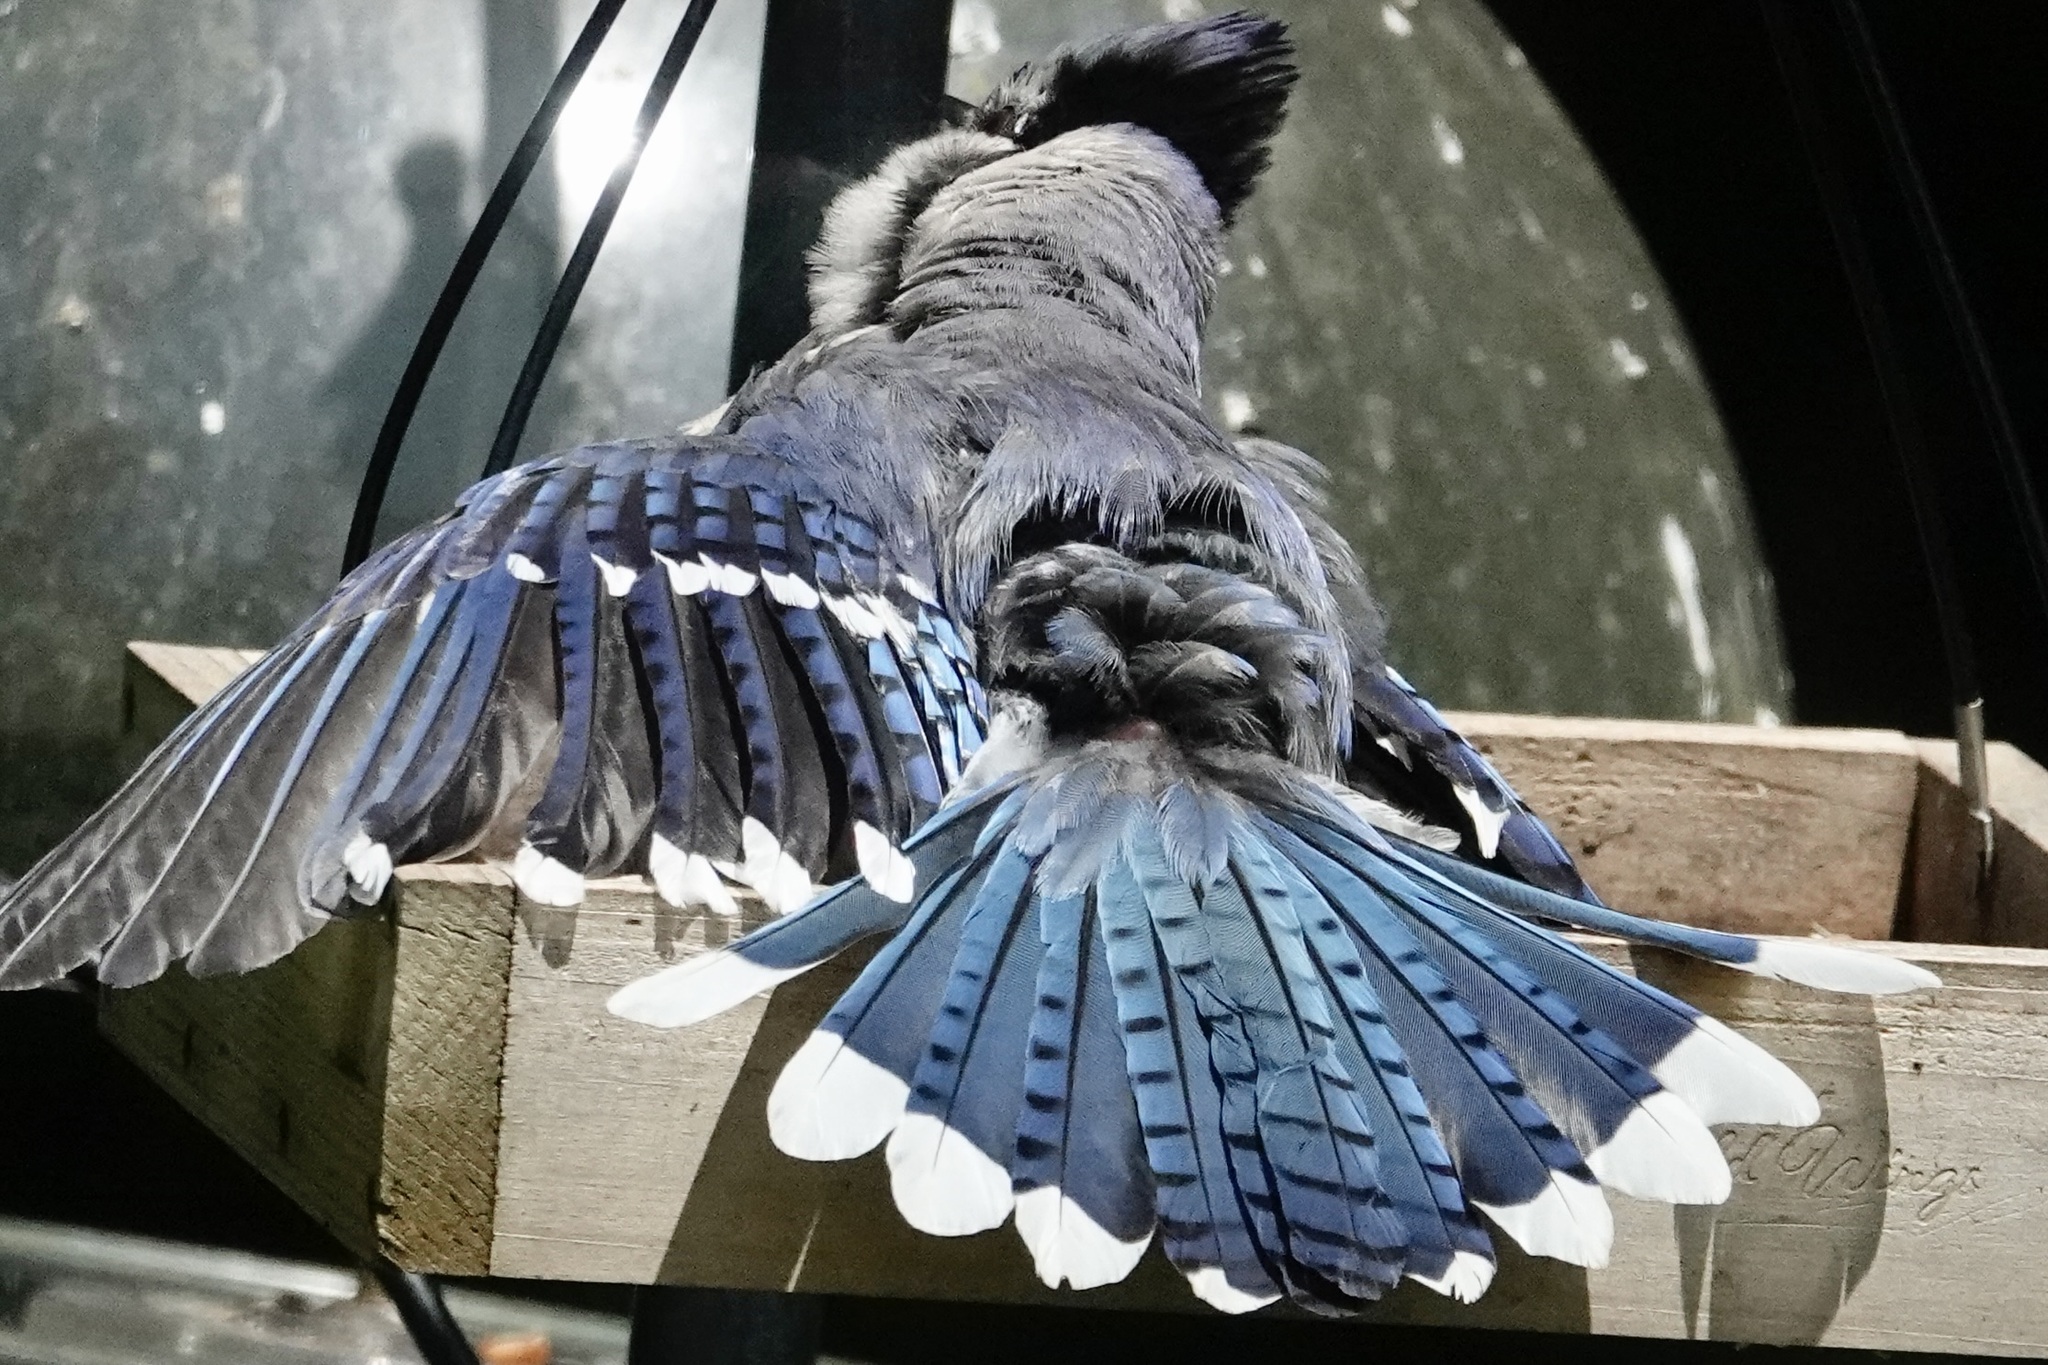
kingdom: Animalia
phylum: Chordata
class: Aves
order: Passeriformes
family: Corvidae
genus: Cyanocitta
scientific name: Cyanocitta cristata
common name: Blue jay
